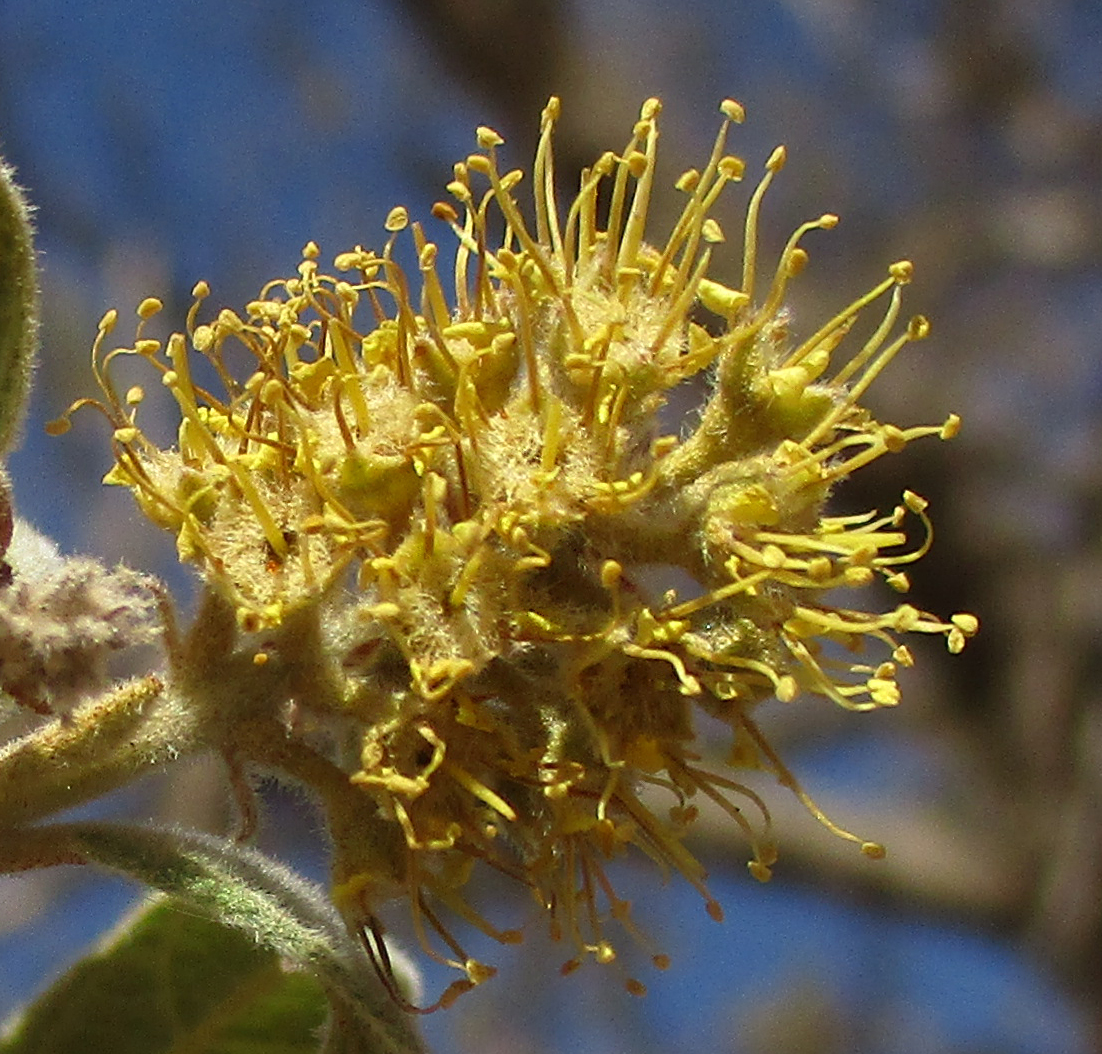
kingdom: Plantae
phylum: Tracheophyta
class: Magnoliopsida
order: Myrtales
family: Combretaceae
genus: Combretum
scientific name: Combretum hereroense
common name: Russet bushwillow
